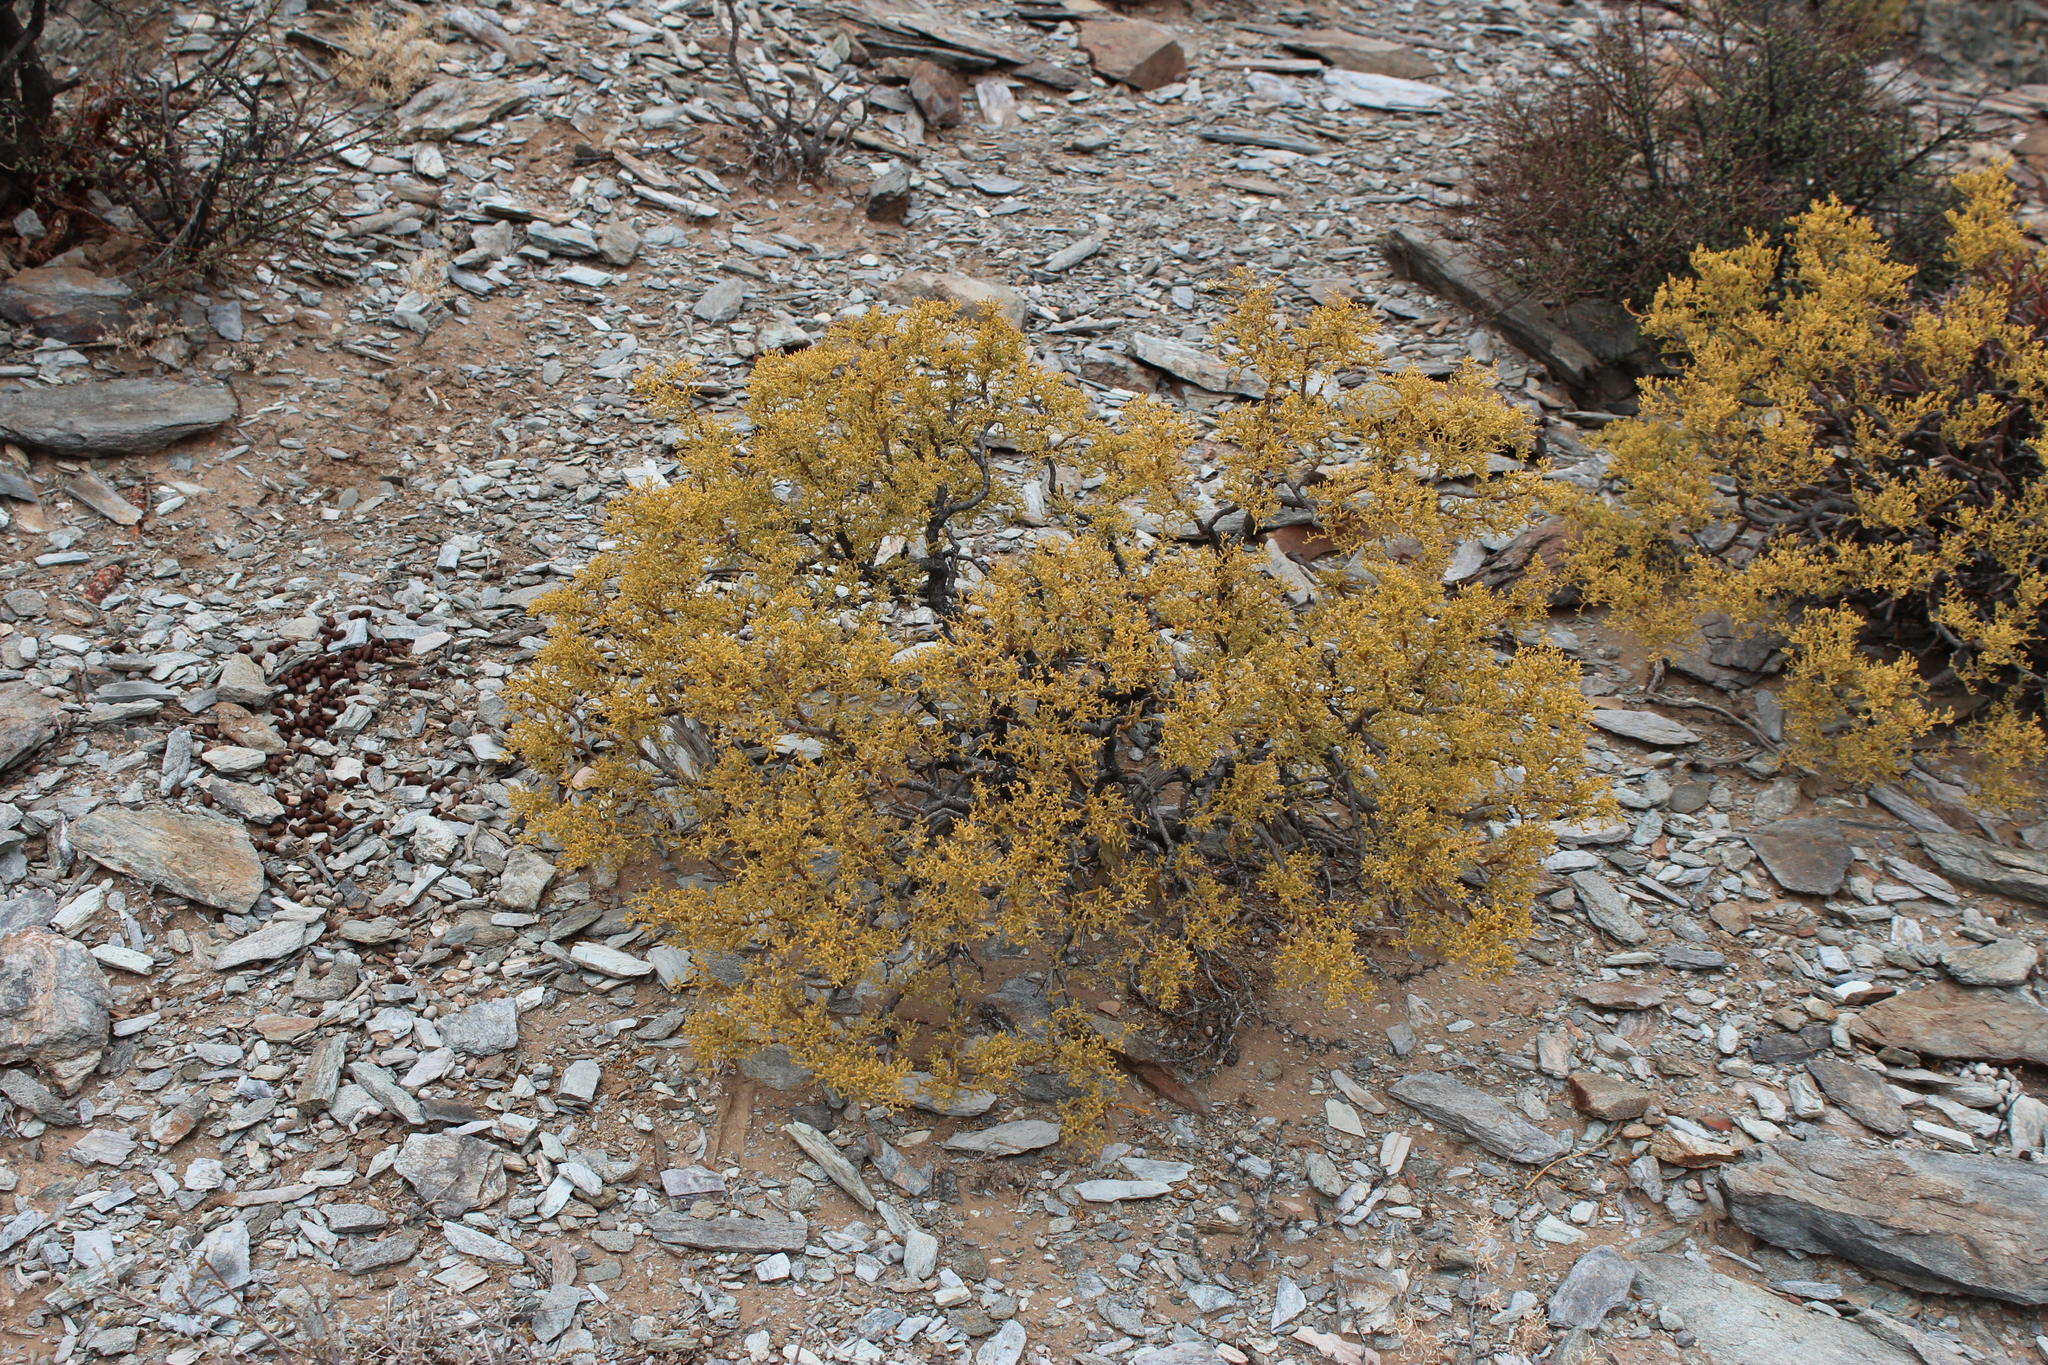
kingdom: Plantae
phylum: Tracheophyta
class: Magnoliopsida
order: Zygophyllales
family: Zygophyllaceae
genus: Tetraena
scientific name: Tetraena segmentata
